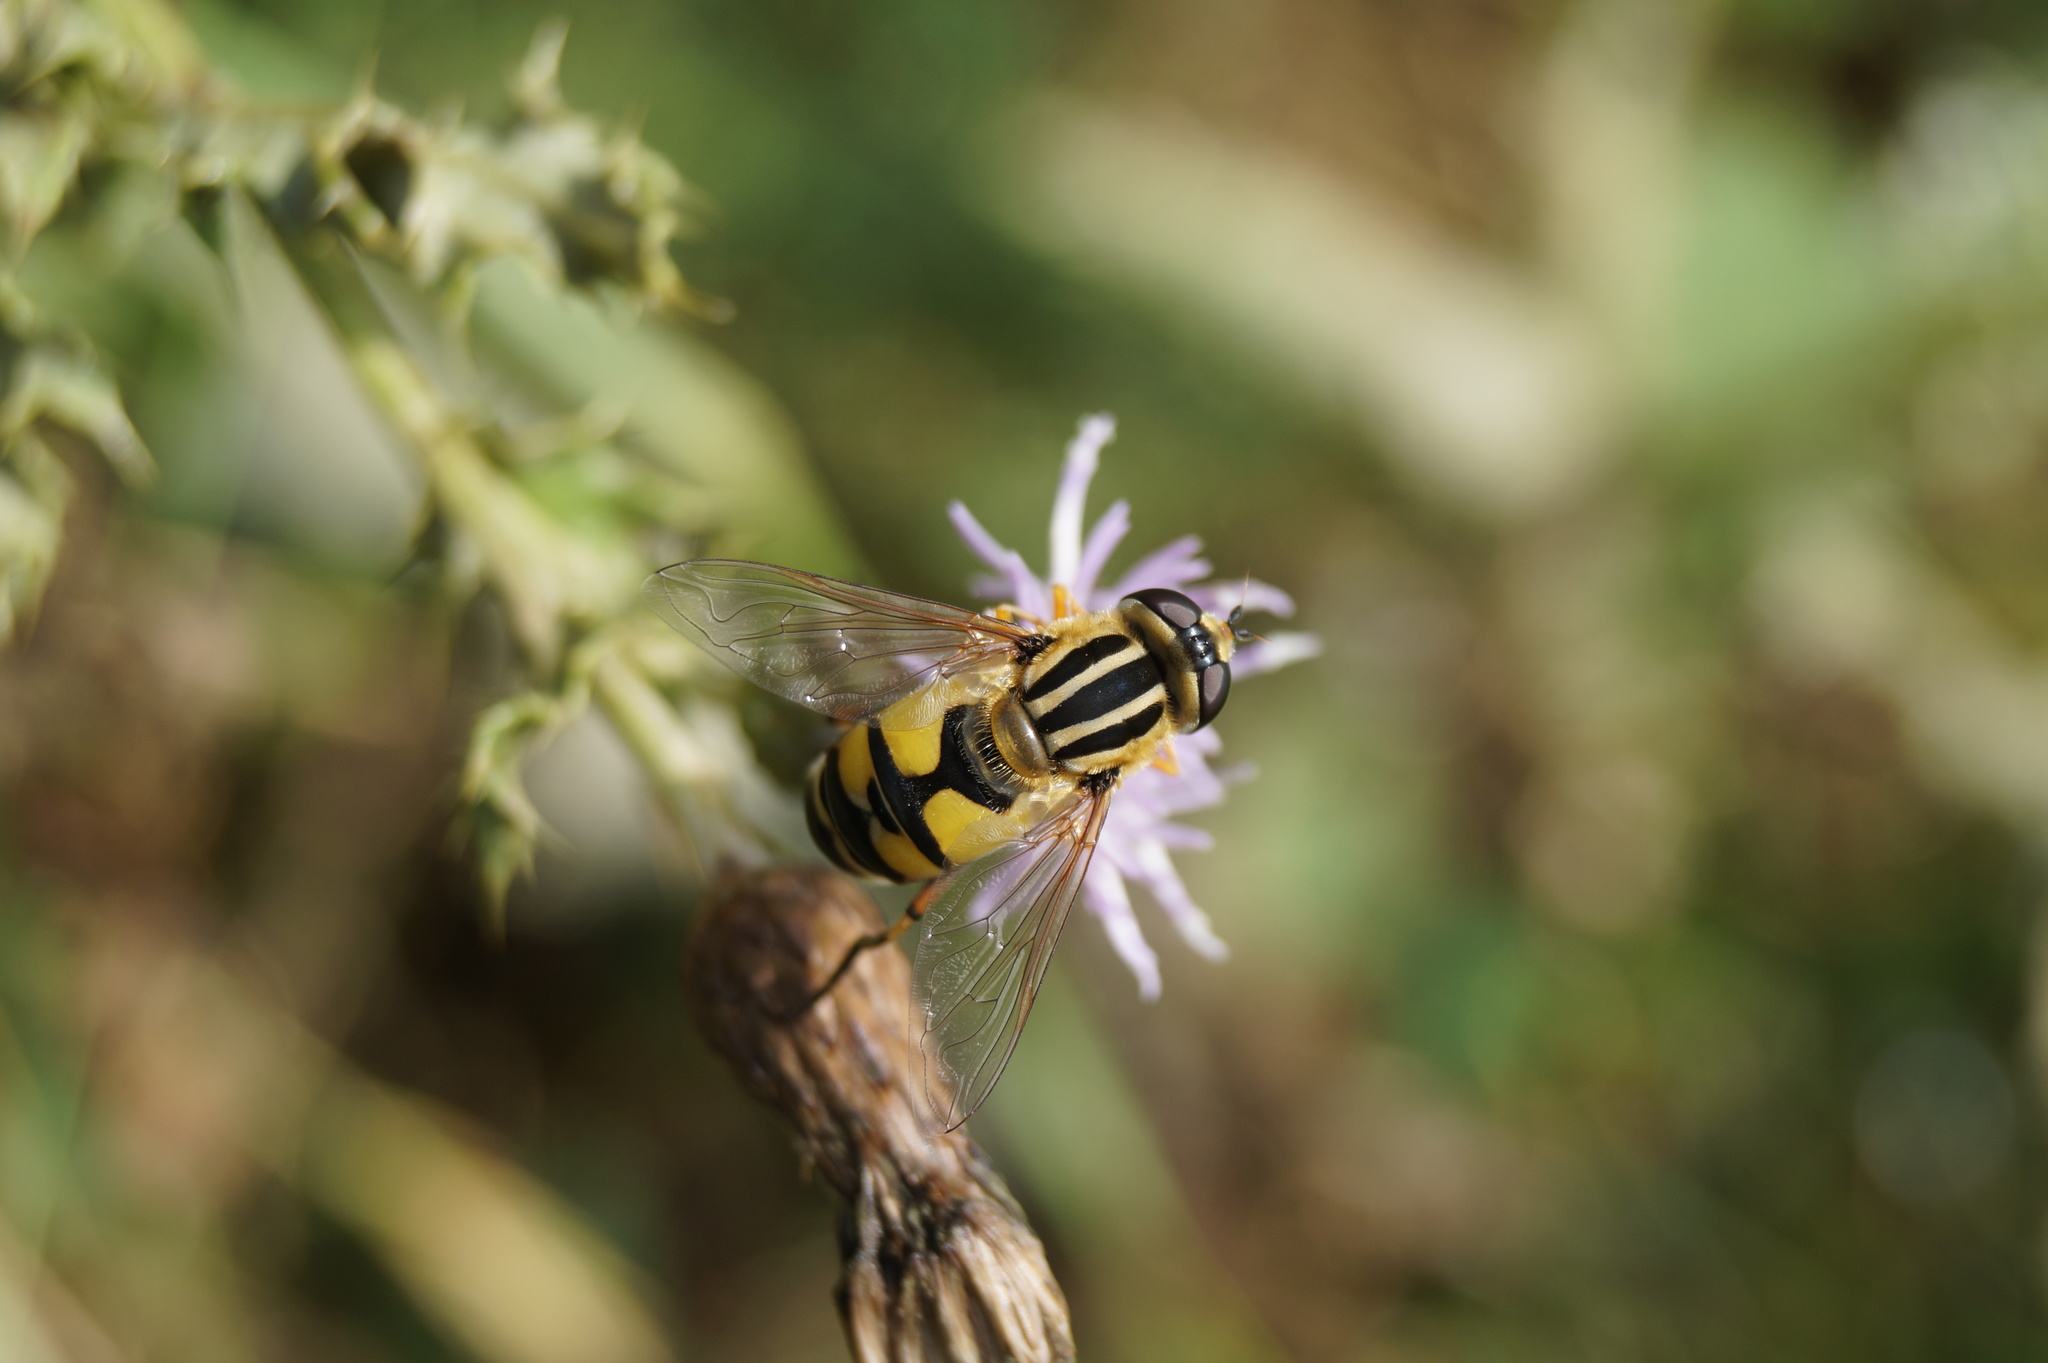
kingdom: Animalia
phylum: Arthropoda
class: Insecta
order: Diptera
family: Syrphidae
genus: Helophilus
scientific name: Helophilus pendulus
